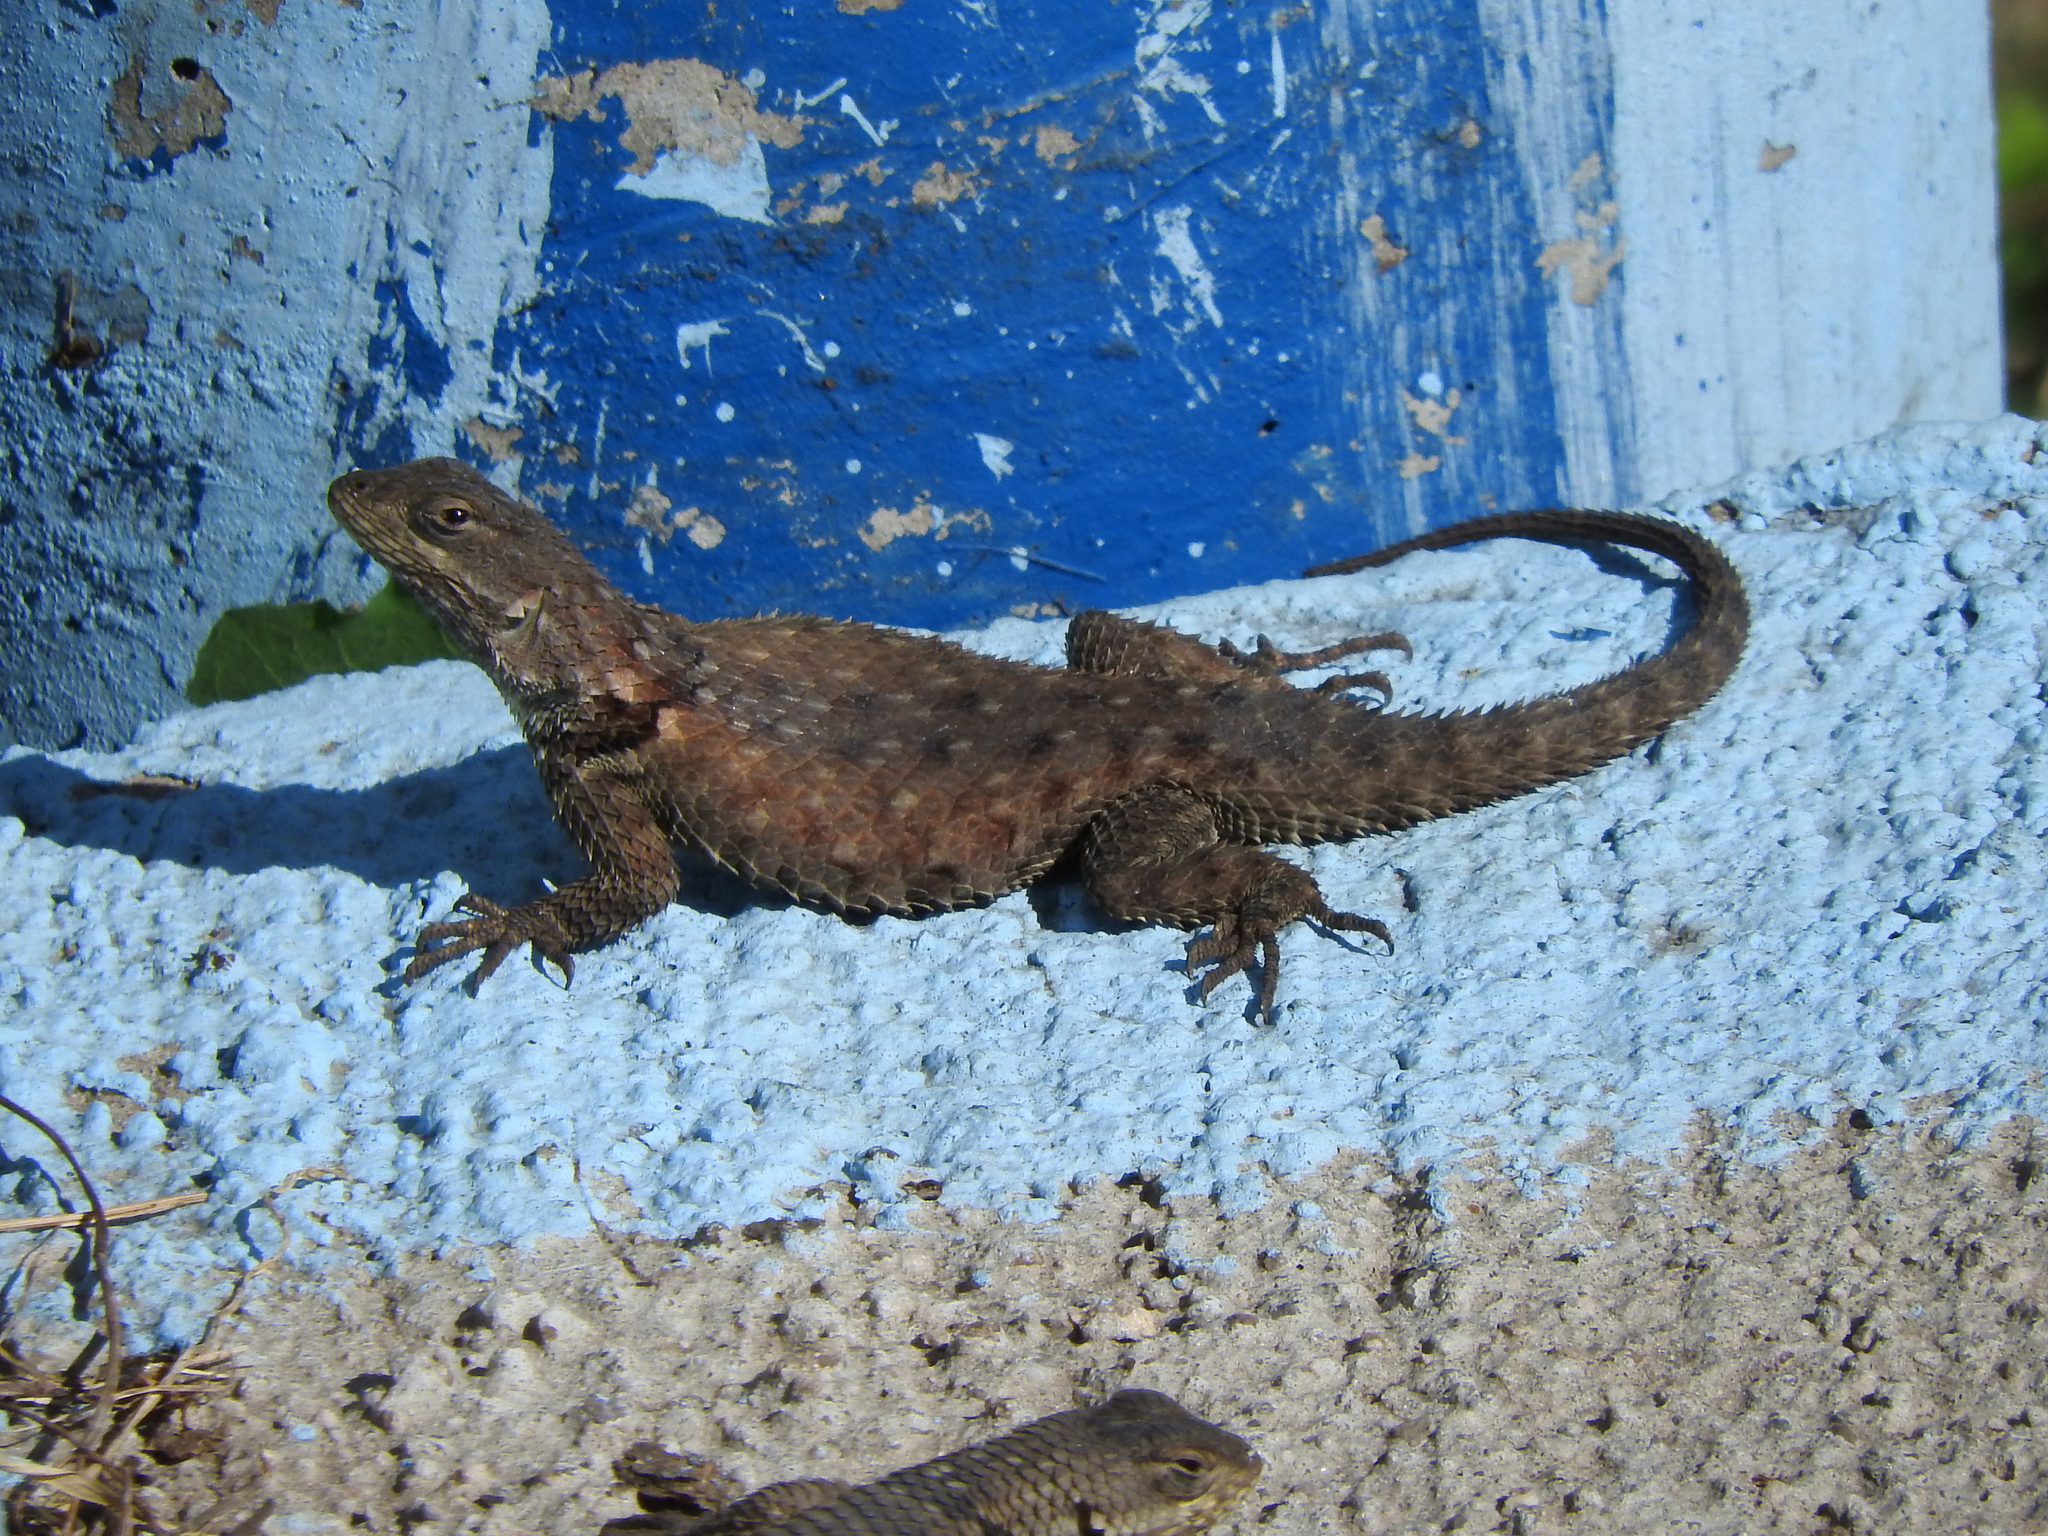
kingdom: Animalia
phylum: Chordata
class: Squamata
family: Phrynosomatidae
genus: Sceloporus
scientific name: Sceloporus torquatus
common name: Central plateau torquate lizard [melanogaster]
